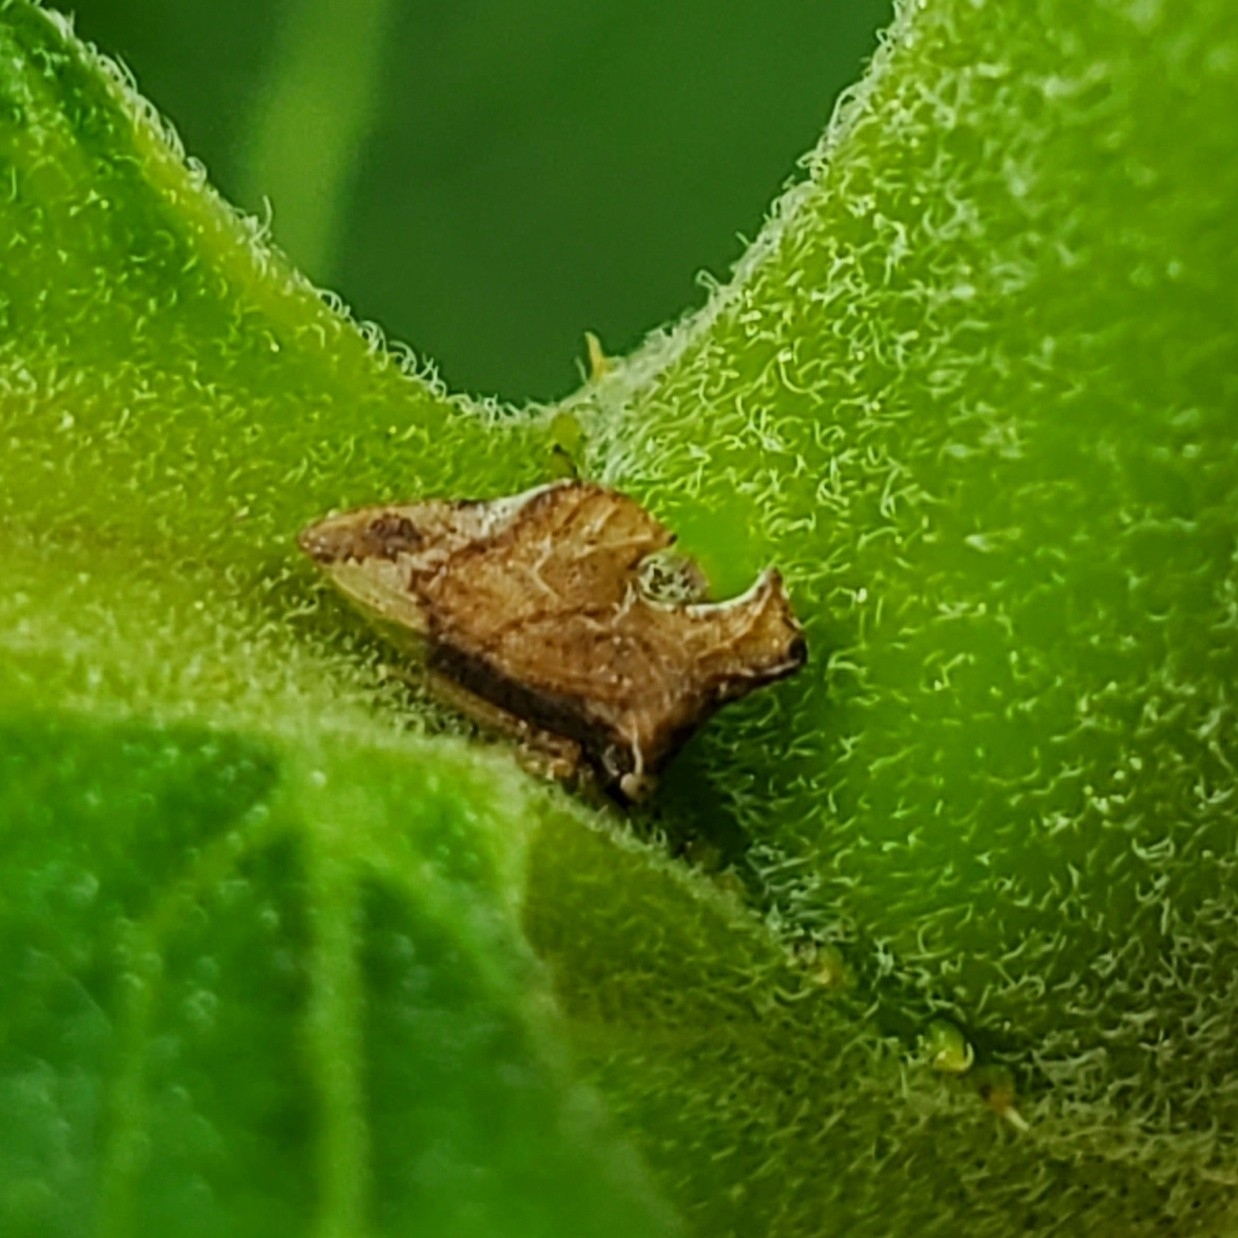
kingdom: Animalia
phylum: Arthropoda
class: Insecta
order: Hemiptera
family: Membracidae
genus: Entylia
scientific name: Entylia carinata
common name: Keeled treehopper
